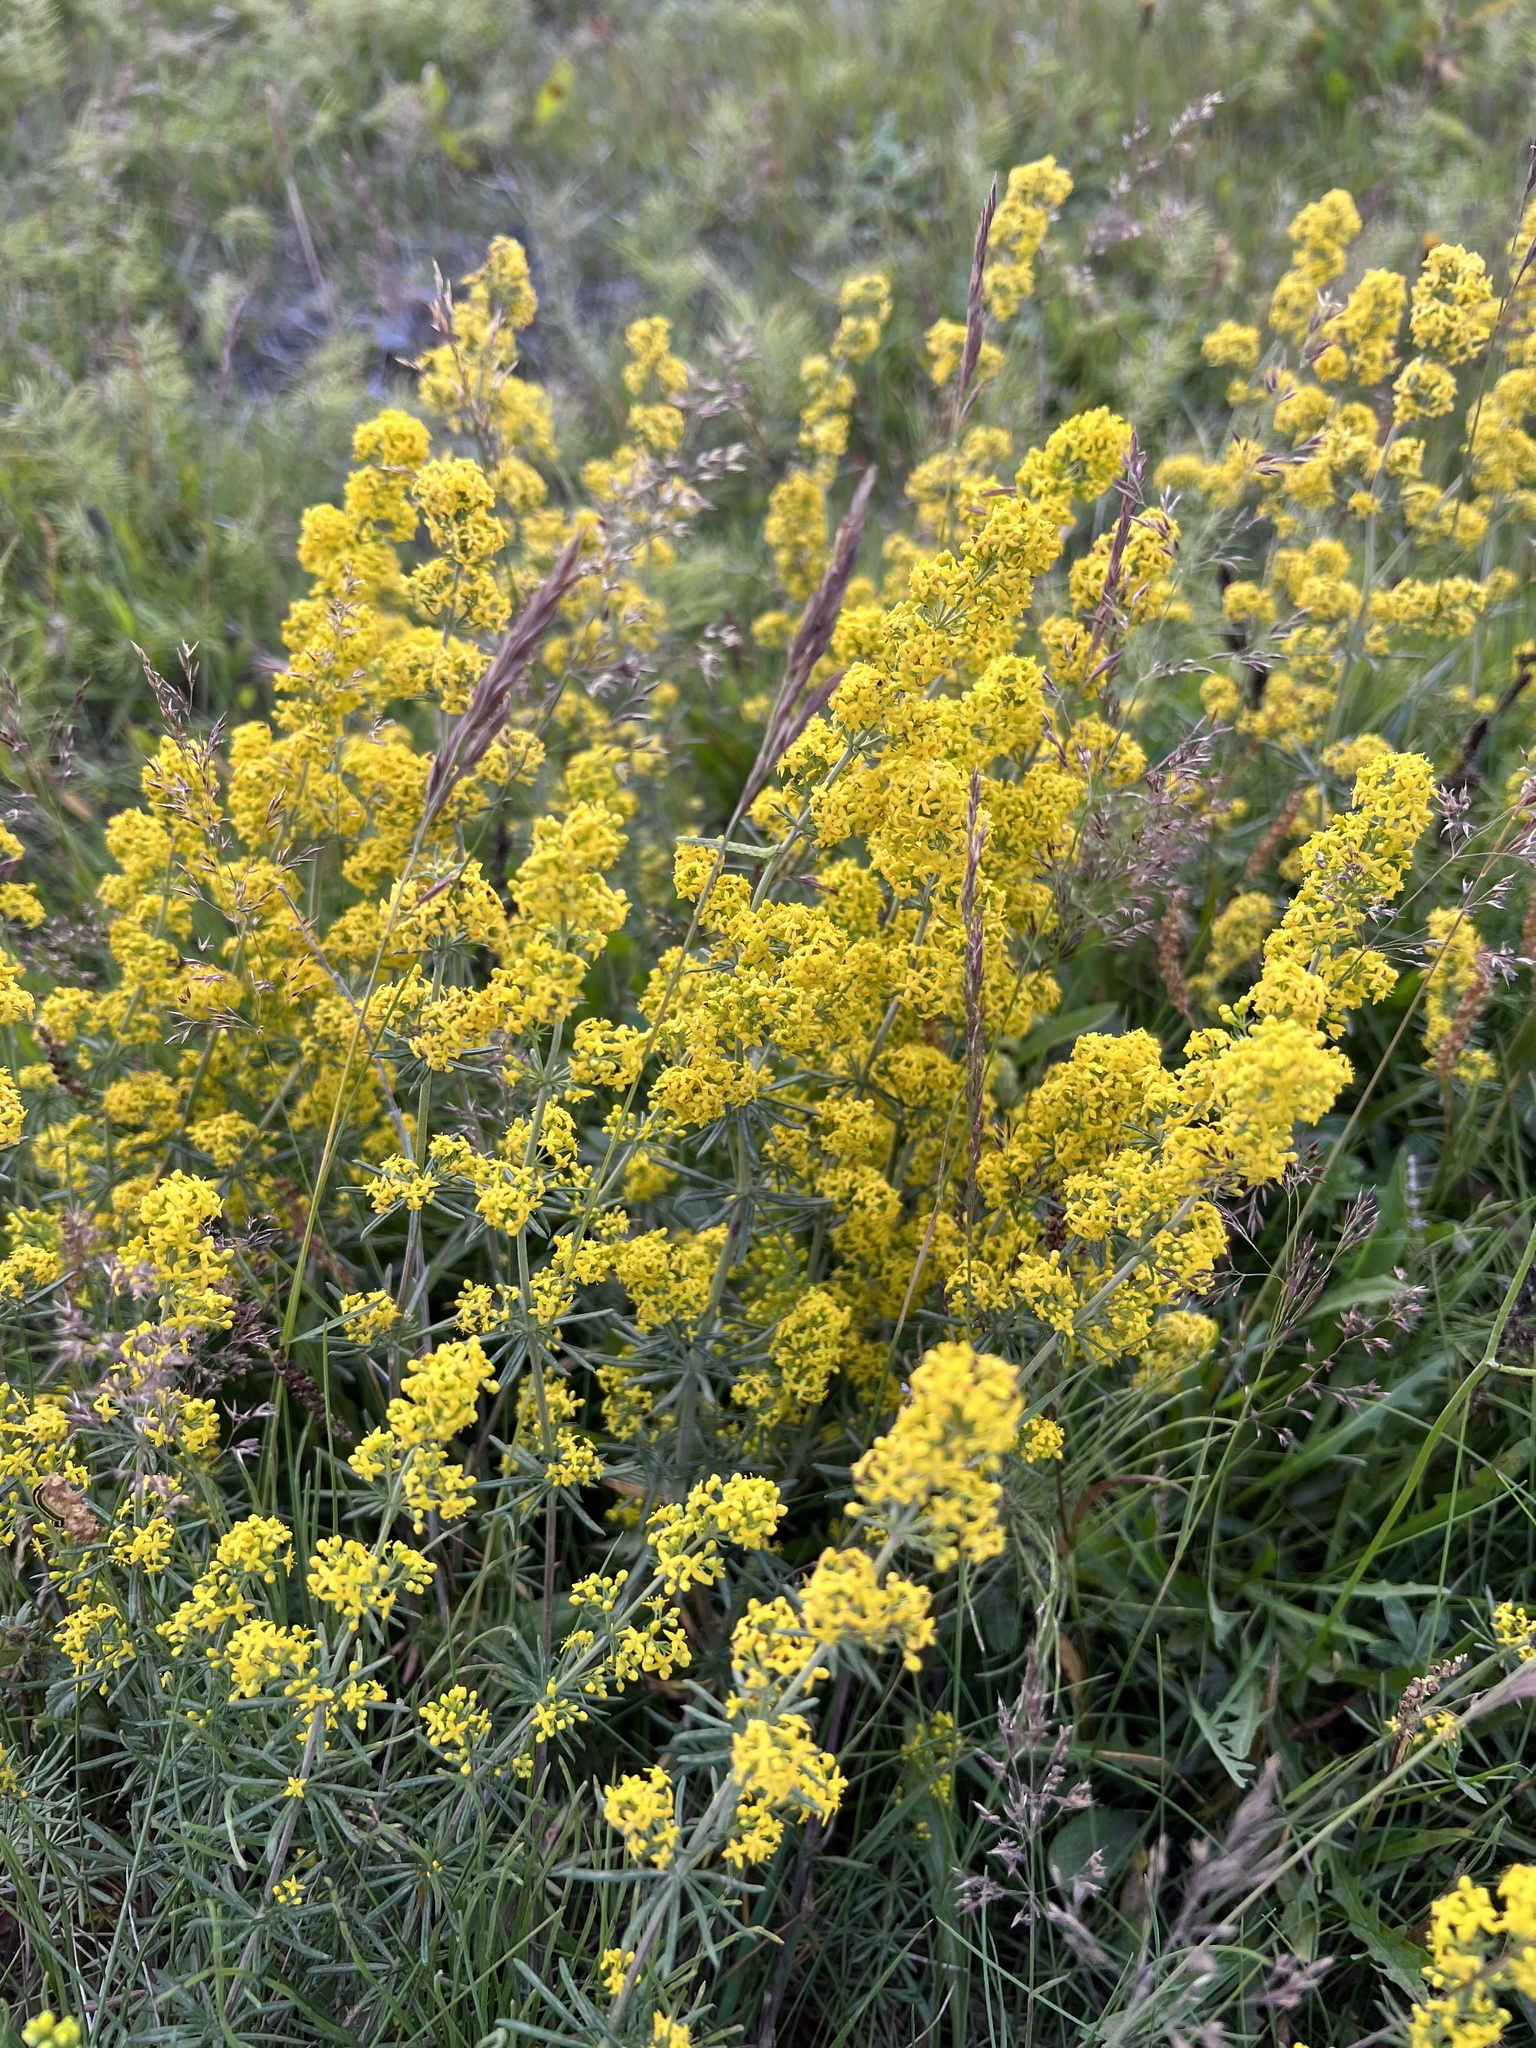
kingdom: Plantae
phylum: Tracheophyta
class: Magnoliopsida
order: Gentianales
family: Rubiaceae
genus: Galium
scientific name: Galium verum
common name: Lady's bedstraw
